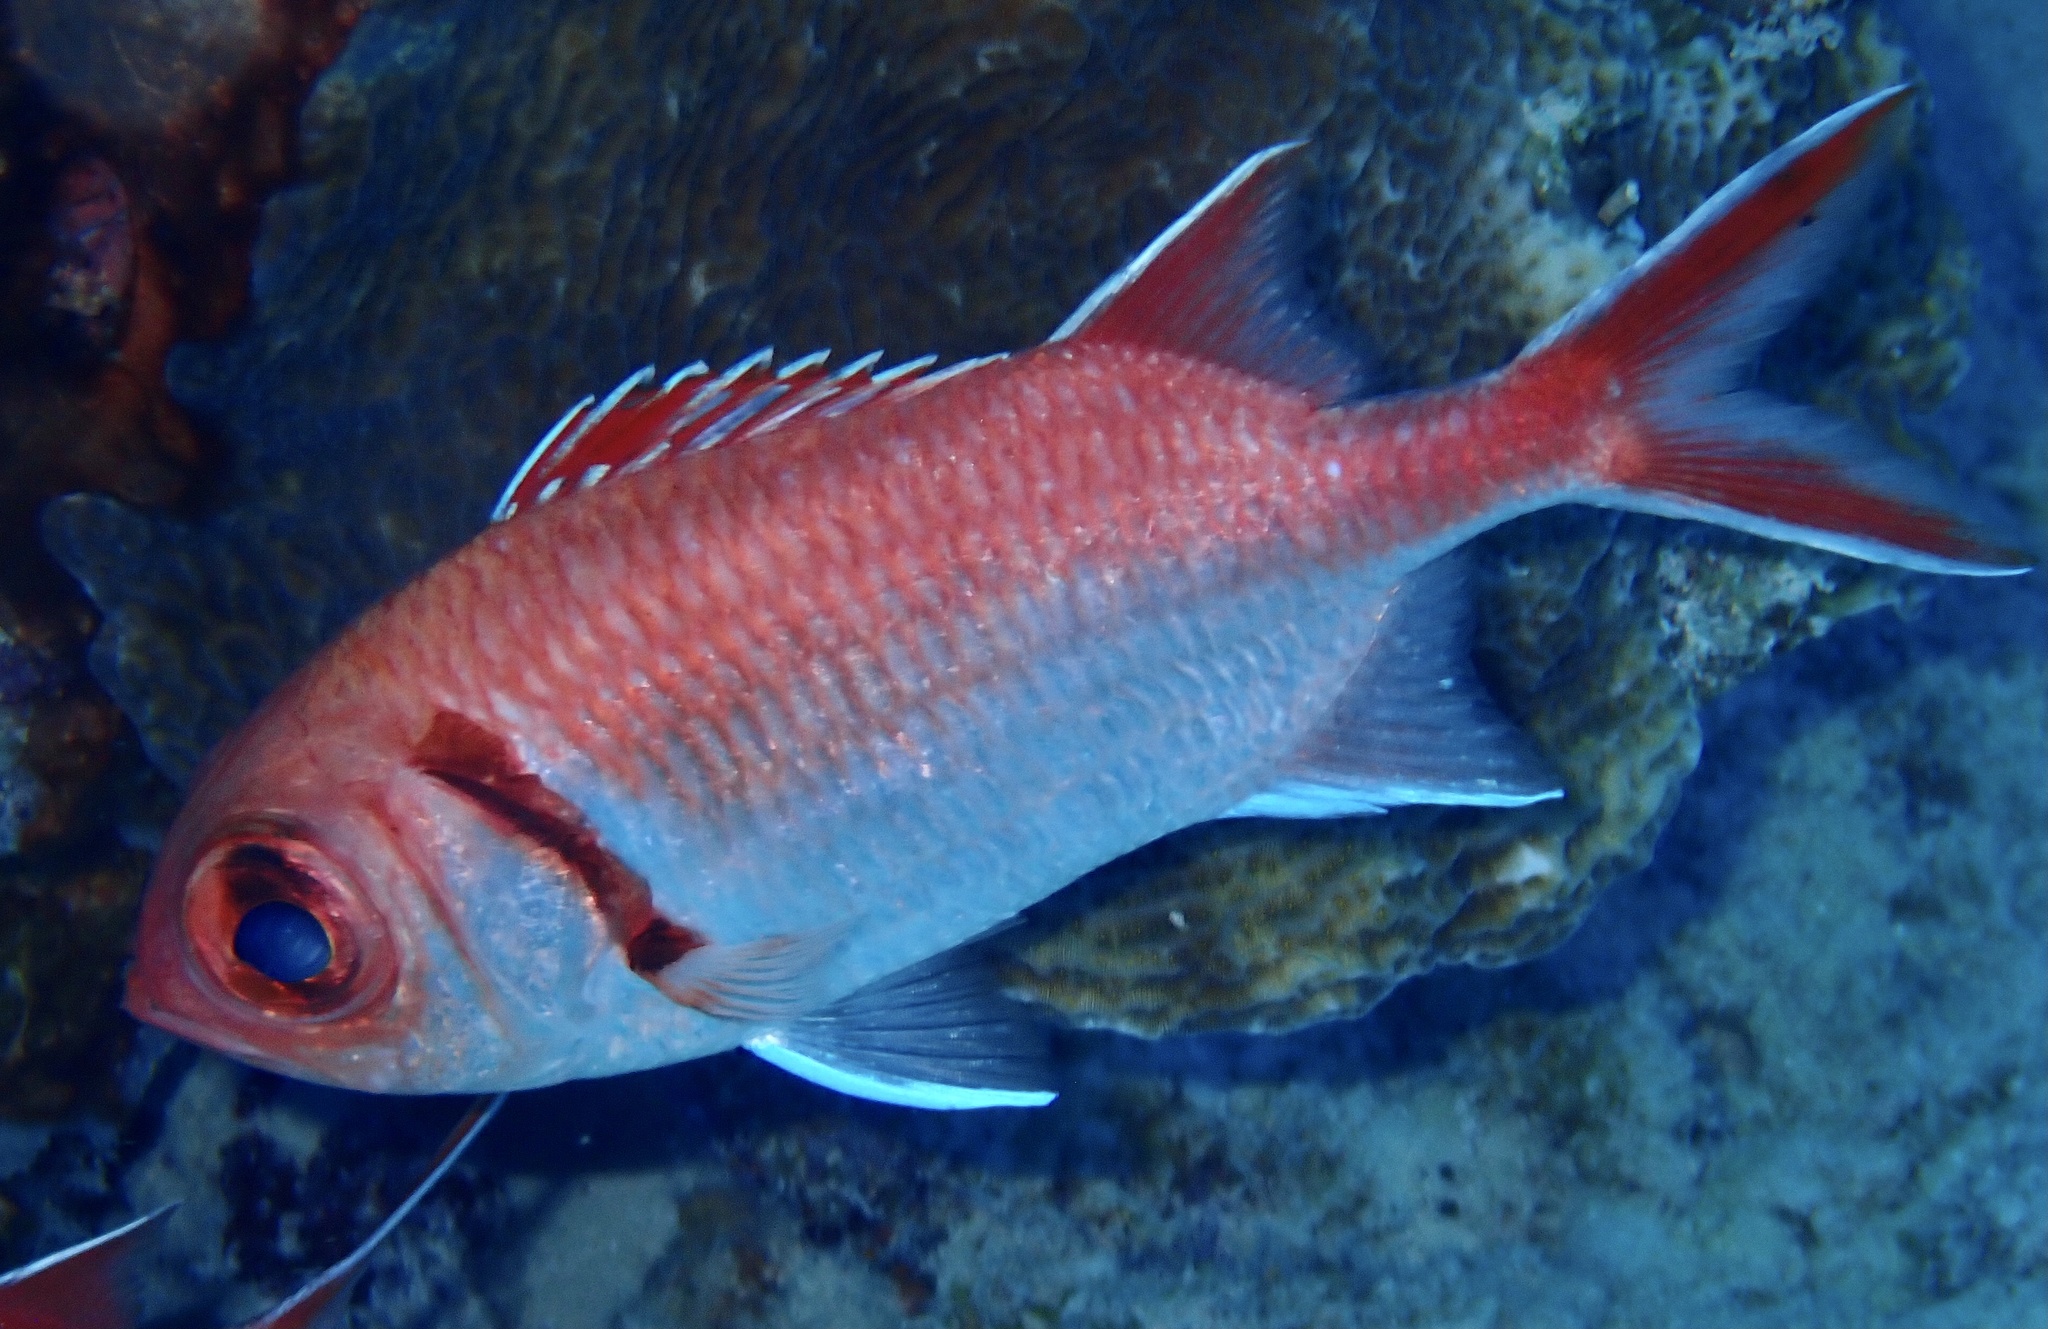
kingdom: Animalia
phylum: Chordata
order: Beryciformes
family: Holocentridae
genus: Myripristis
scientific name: Myripristis jacobus
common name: Blackbar soldierfish
